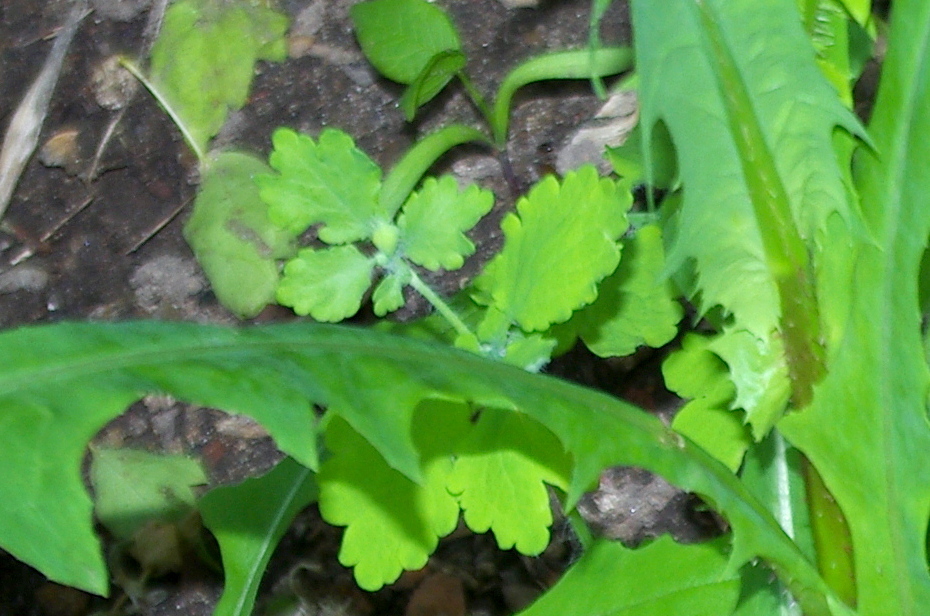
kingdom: Plantae
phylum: Tracheophyta
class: Magnoliopsida
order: Ranunculales
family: Papaveraceae
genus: Chelidonium
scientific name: Chelidonium majus
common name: Greater celandine
